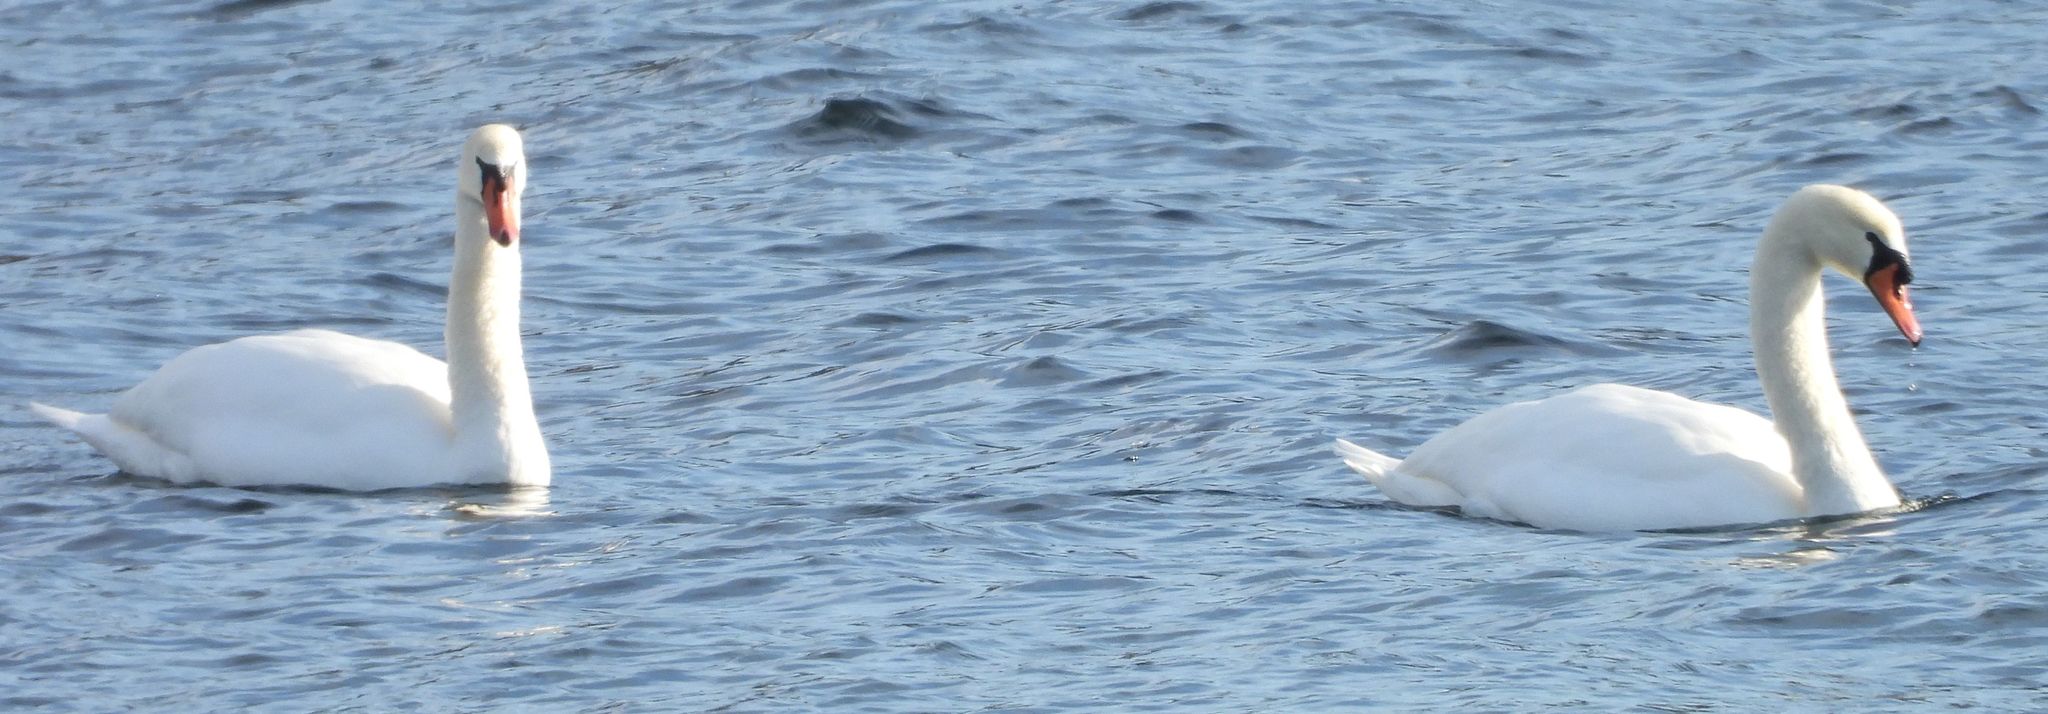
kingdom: Animalia
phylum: Chordata
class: Aves
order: Anseriformes
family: Anatidae
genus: Cygnus
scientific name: Cygnus olor
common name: Mute swan
